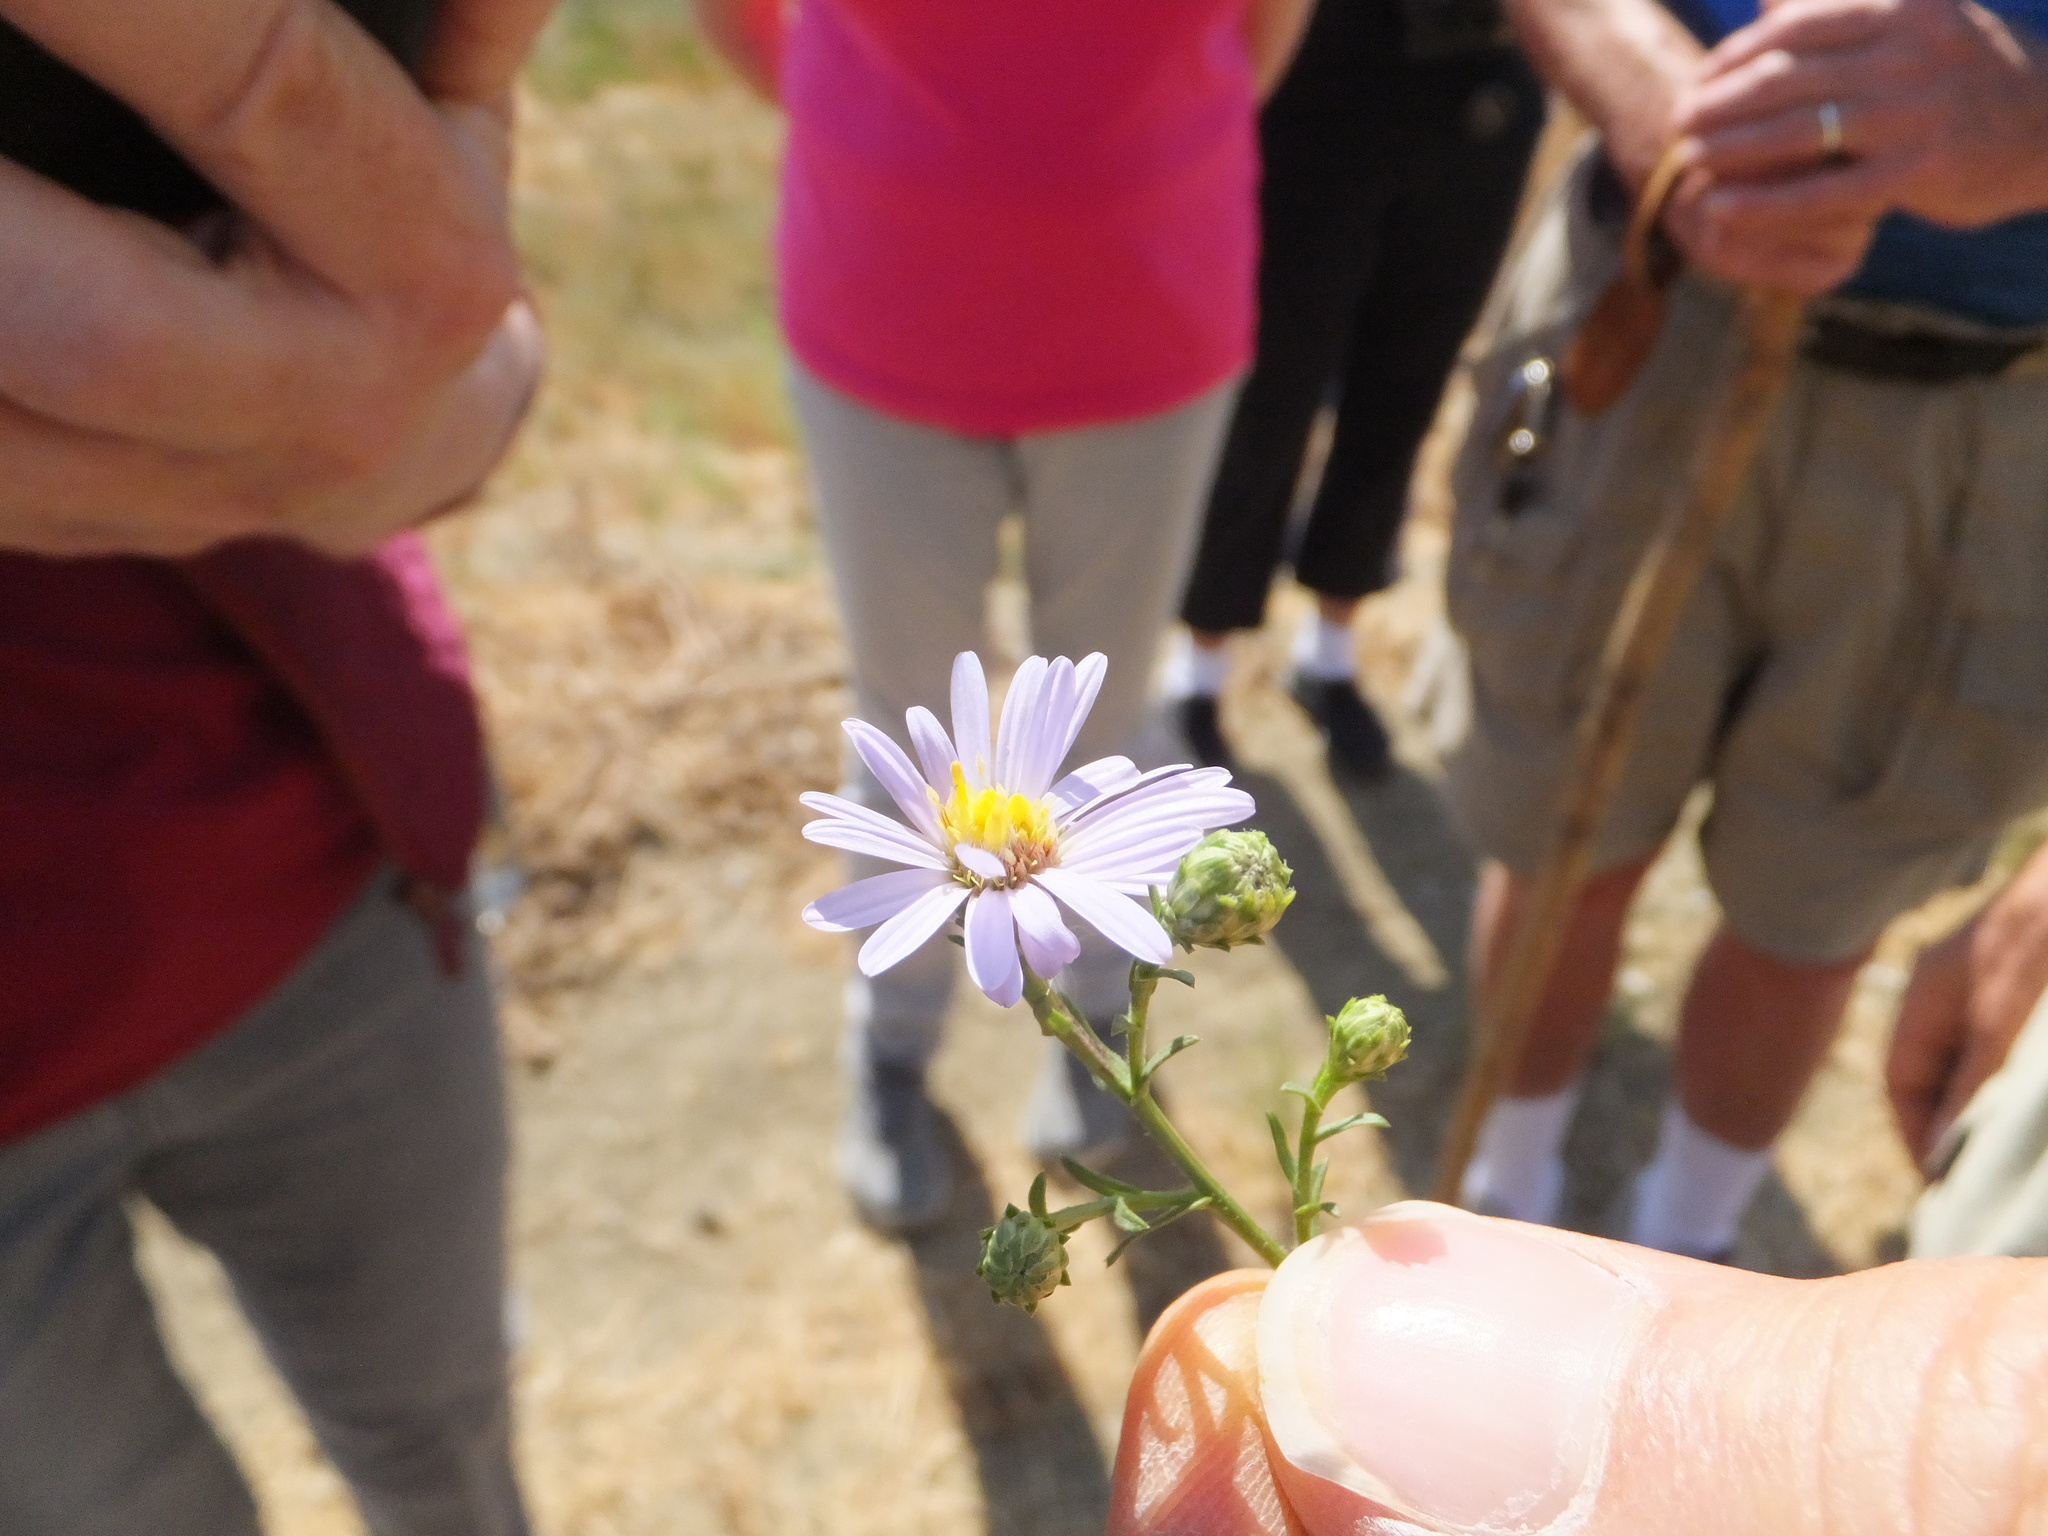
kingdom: Plantae
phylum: Tracheophyta
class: Magnoliopsida
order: Asterales
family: Asteraceae
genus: Symphyotrichum
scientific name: Symphyotrichum lentum
